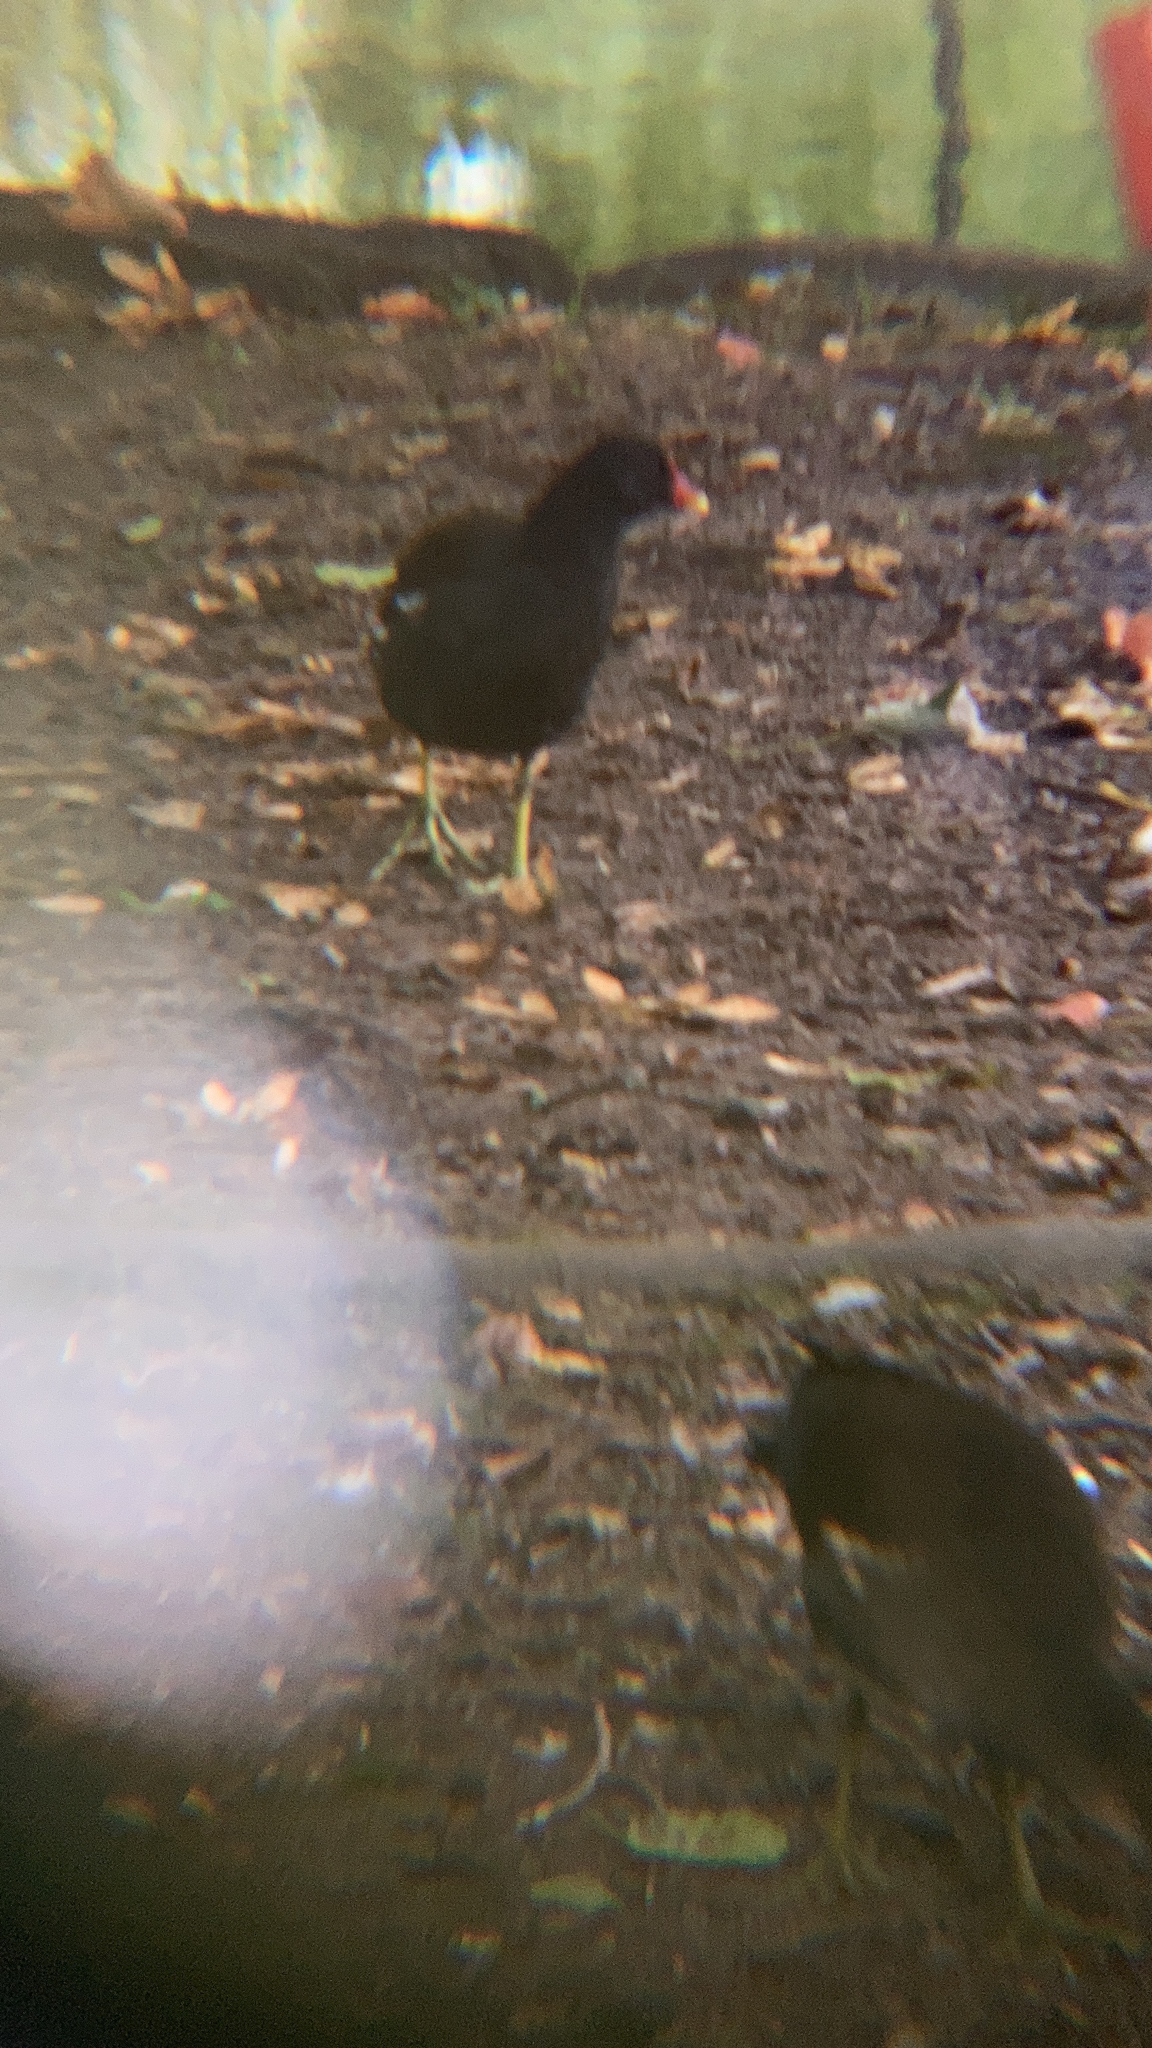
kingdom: Animalia
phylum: Chordata
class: Aves
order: Gruiformes
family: Rallidae
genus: Gallinula
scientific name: Gallinula chloropus
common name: Common moorhen
